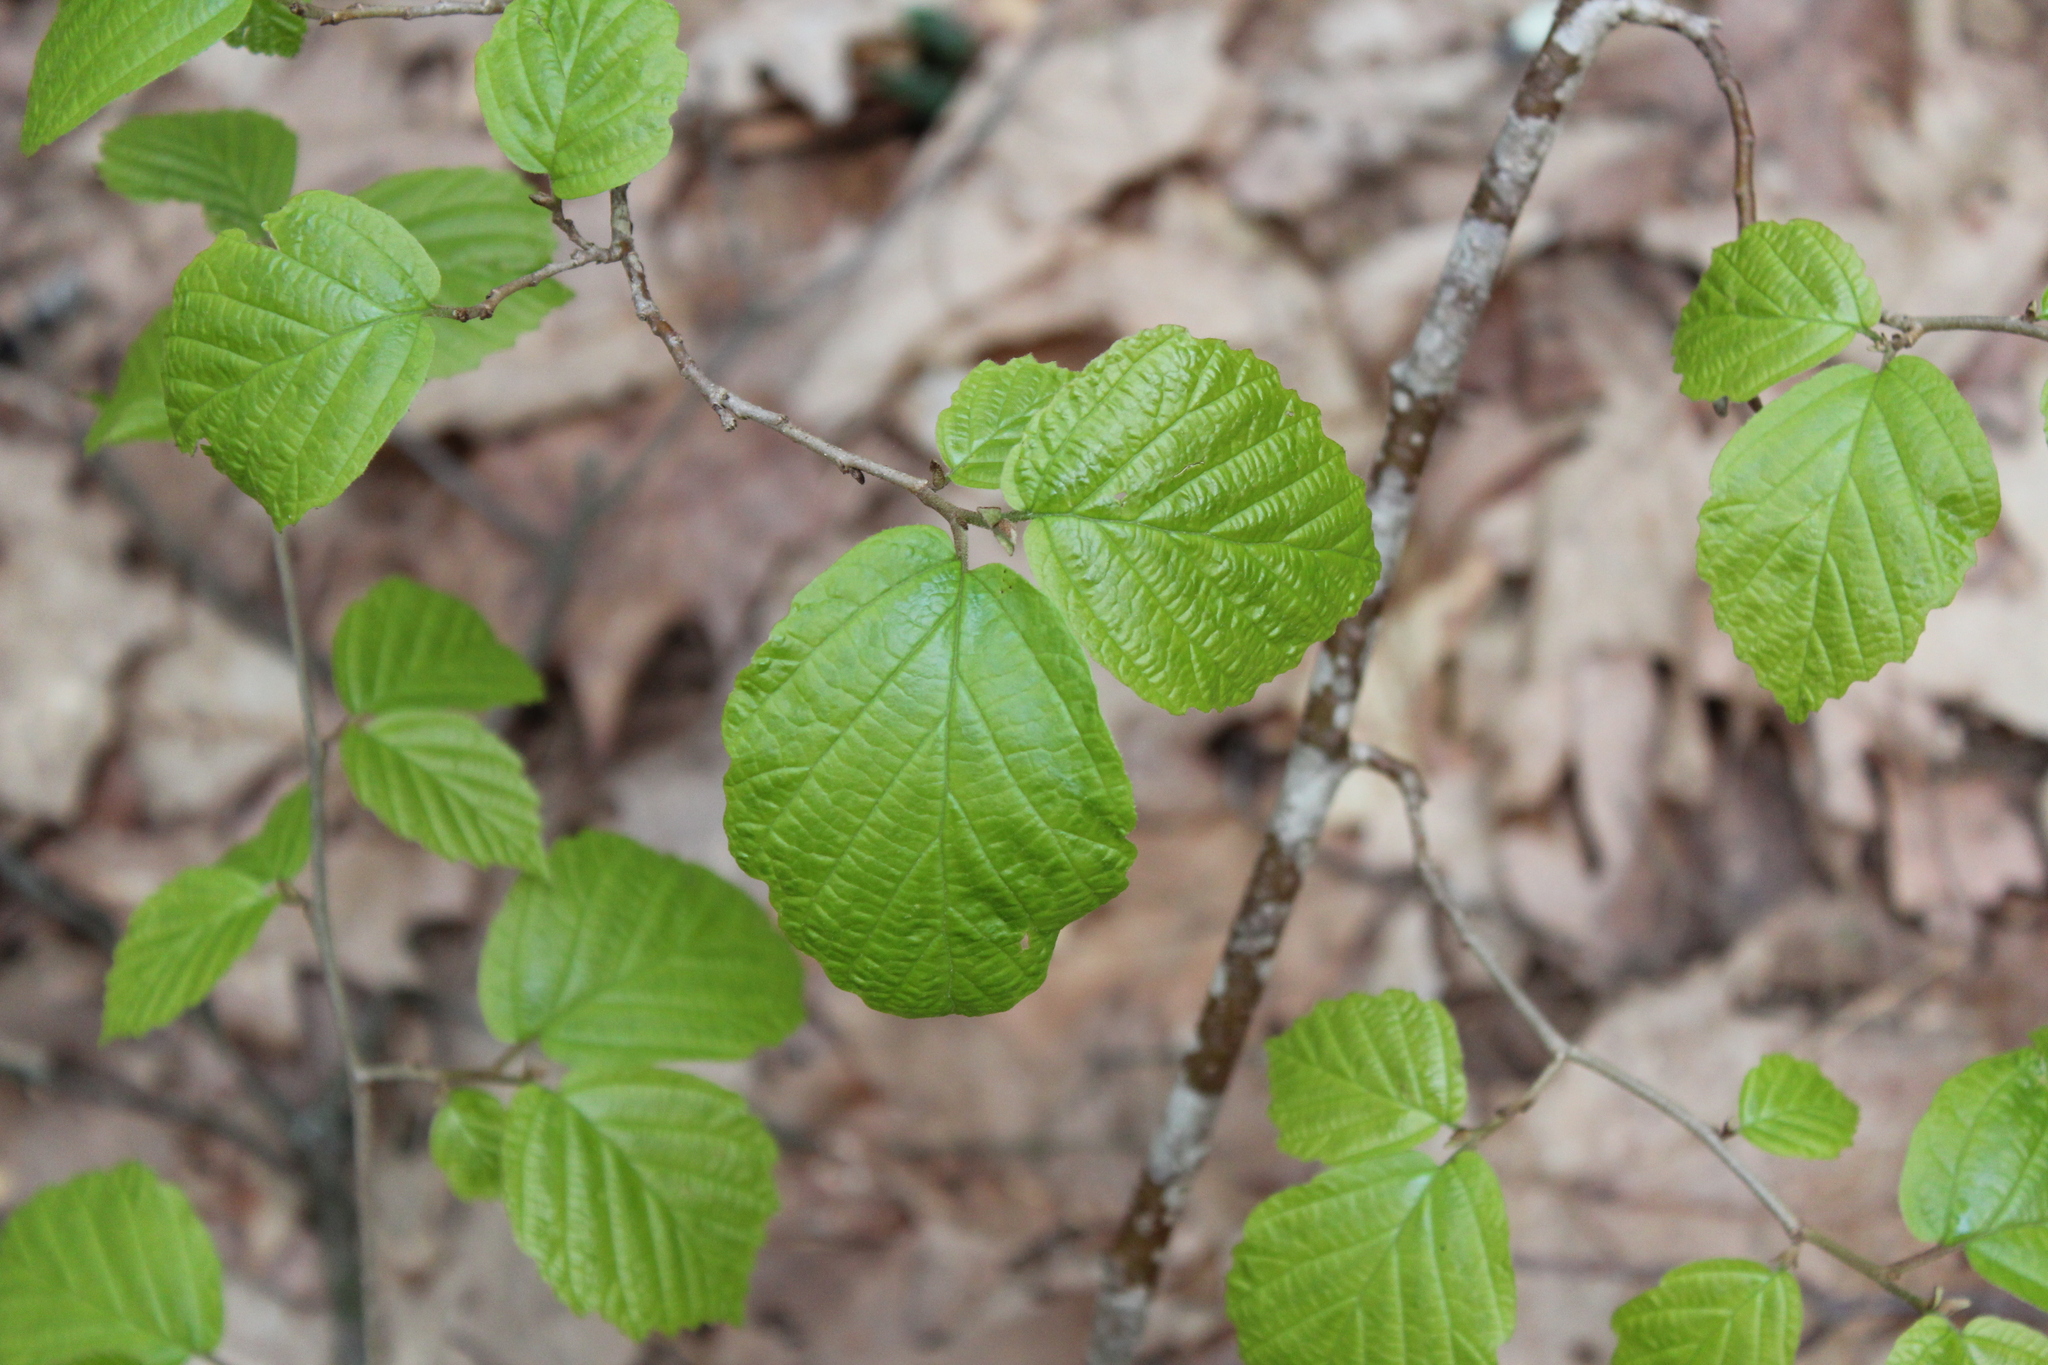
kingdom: Plantae
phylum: Tracheophyta
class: Magnoliopsida
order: Saxifragales
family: Hamamelidaceae
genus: Hamamelis
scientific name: Hamamelis virginiana
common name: Witch-hazel
